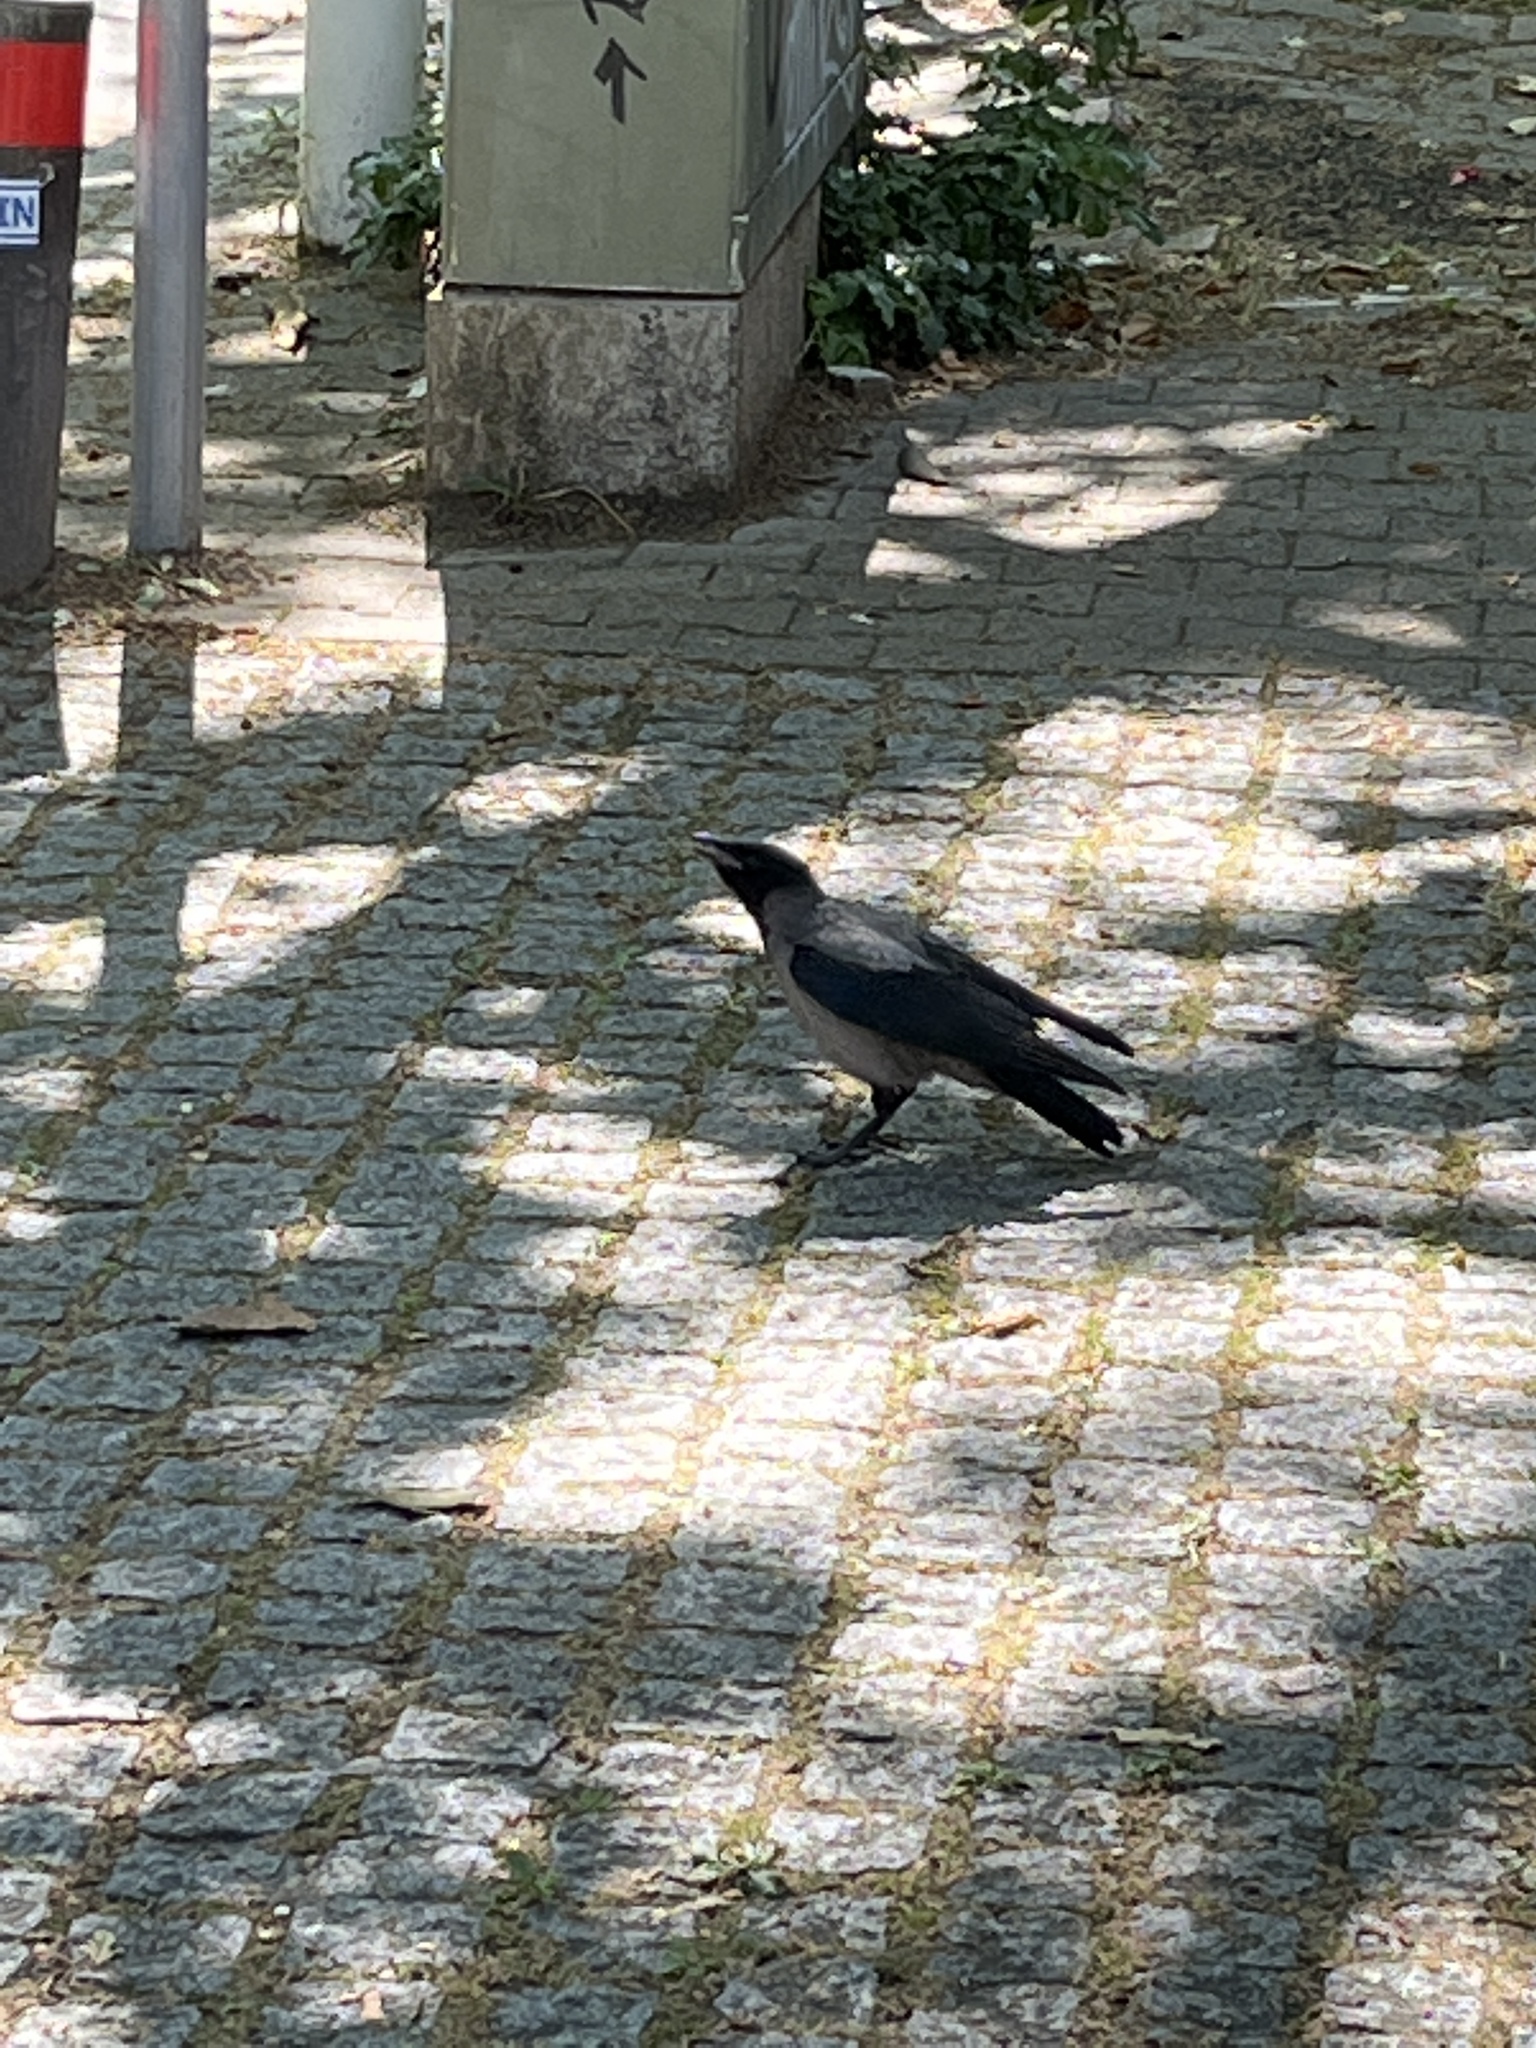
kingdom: Animalia
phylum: Chordata
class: Aves
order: Passeriformes
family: Corvidae
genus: Corvus
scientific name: Corvus cornix
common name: Hooded crow
